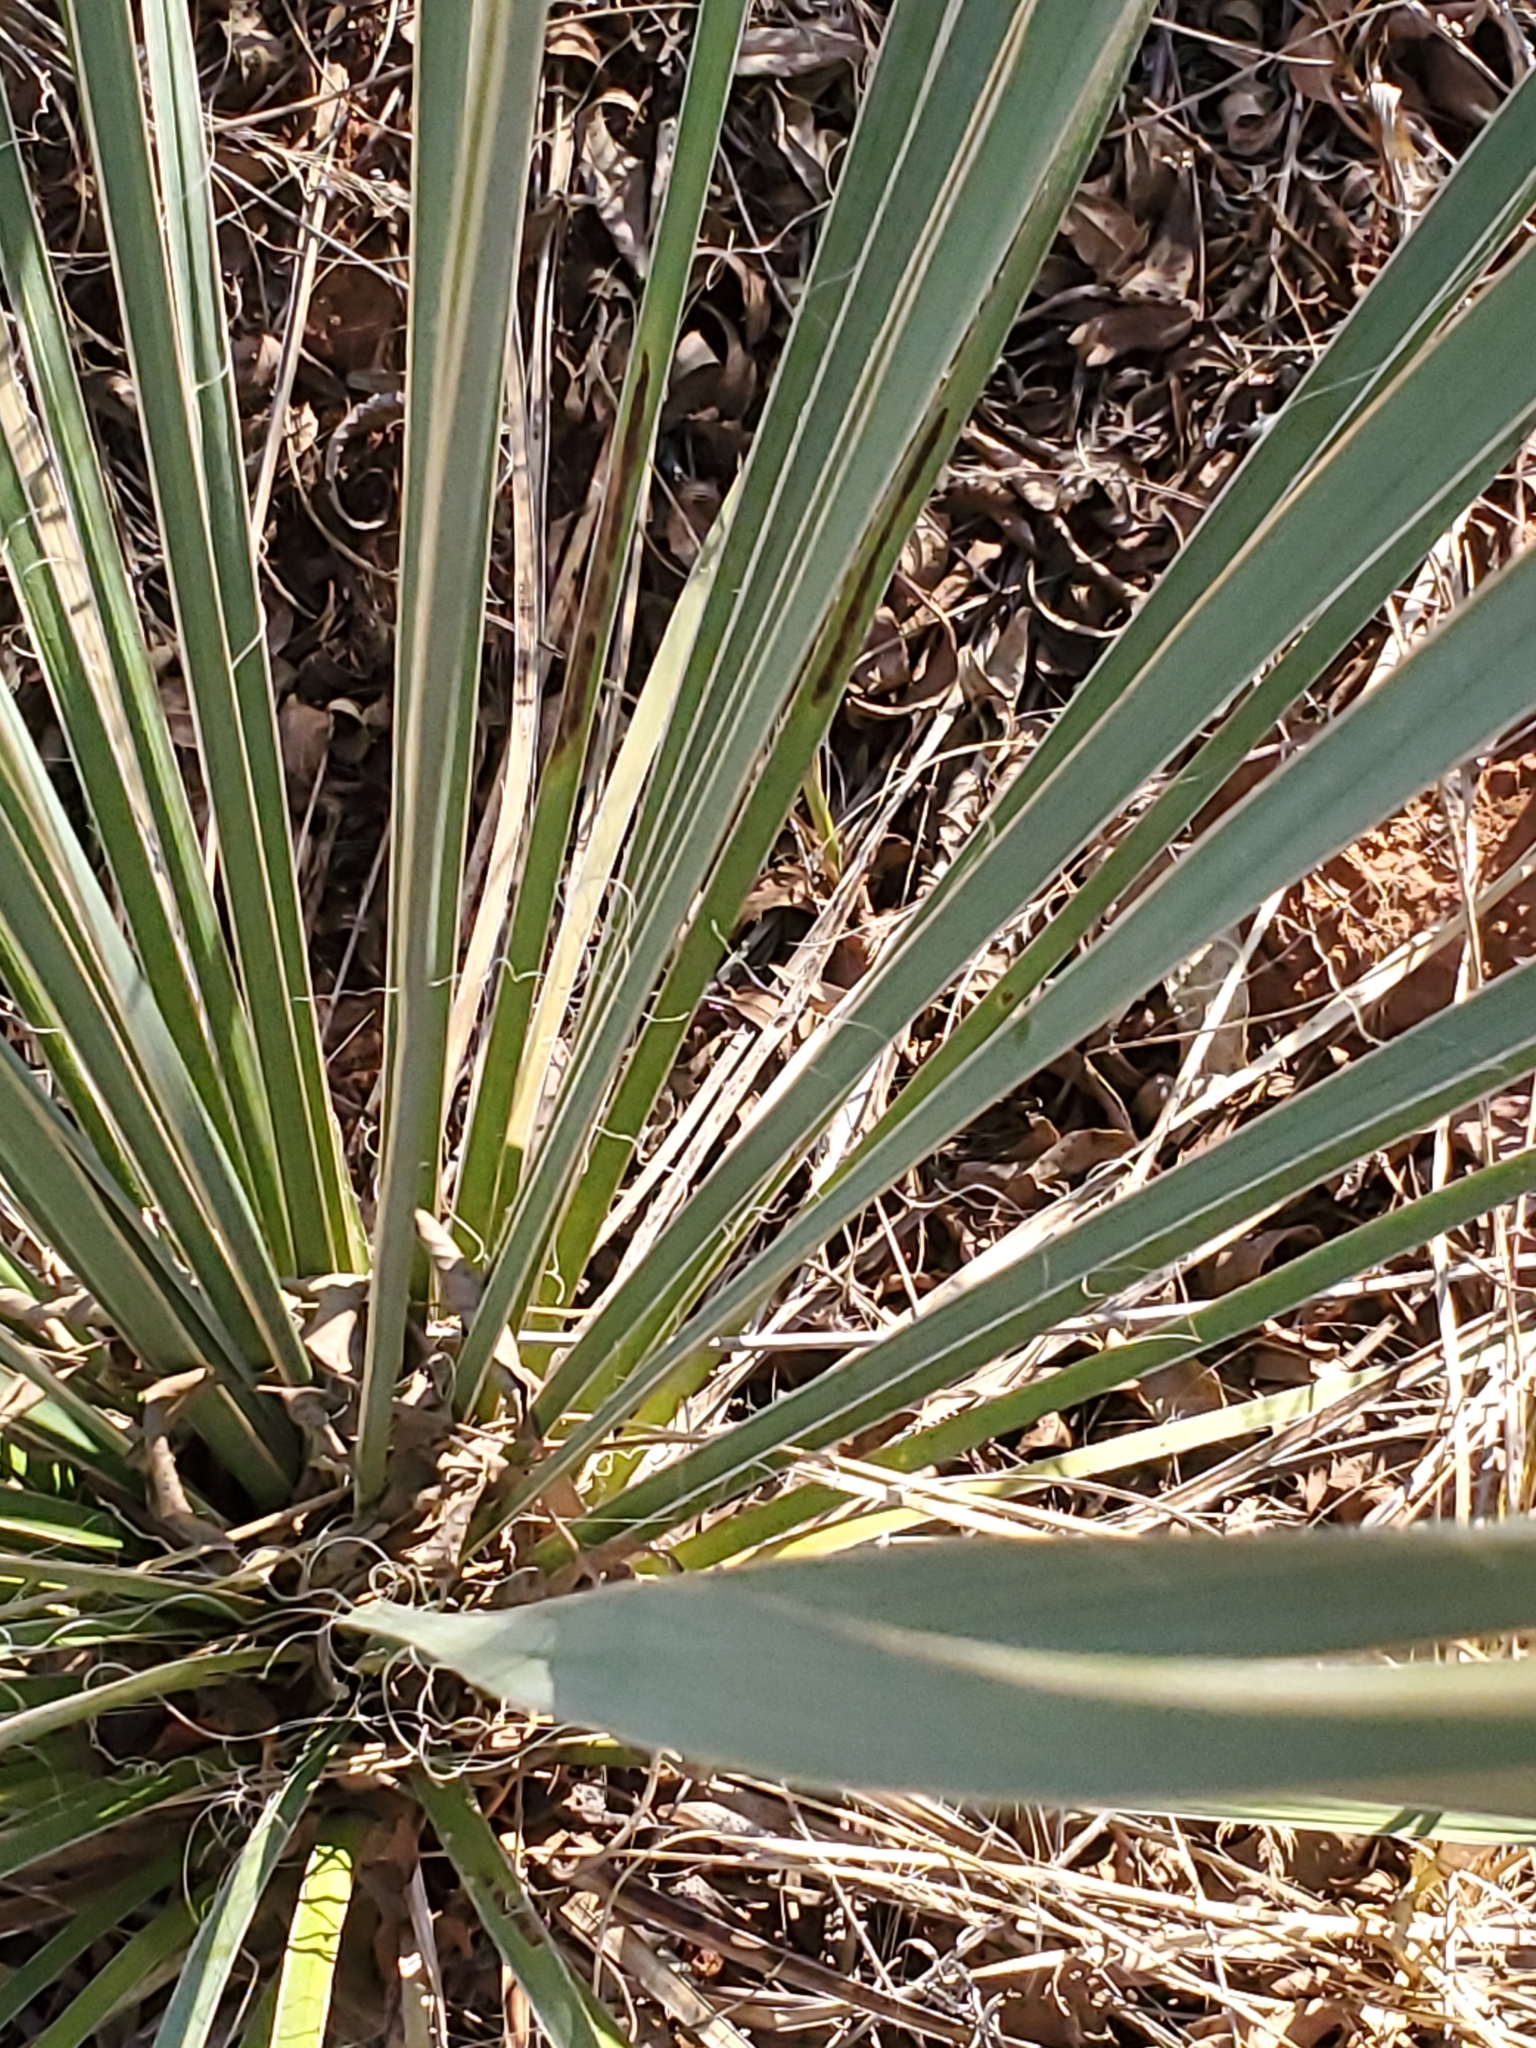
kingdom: Plantae
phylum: Tracheophyta
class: Liliopsida
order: Asparagales
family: Asparagaceae
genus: Yucca
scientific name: Yucca glauca
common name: Great plains yucca
